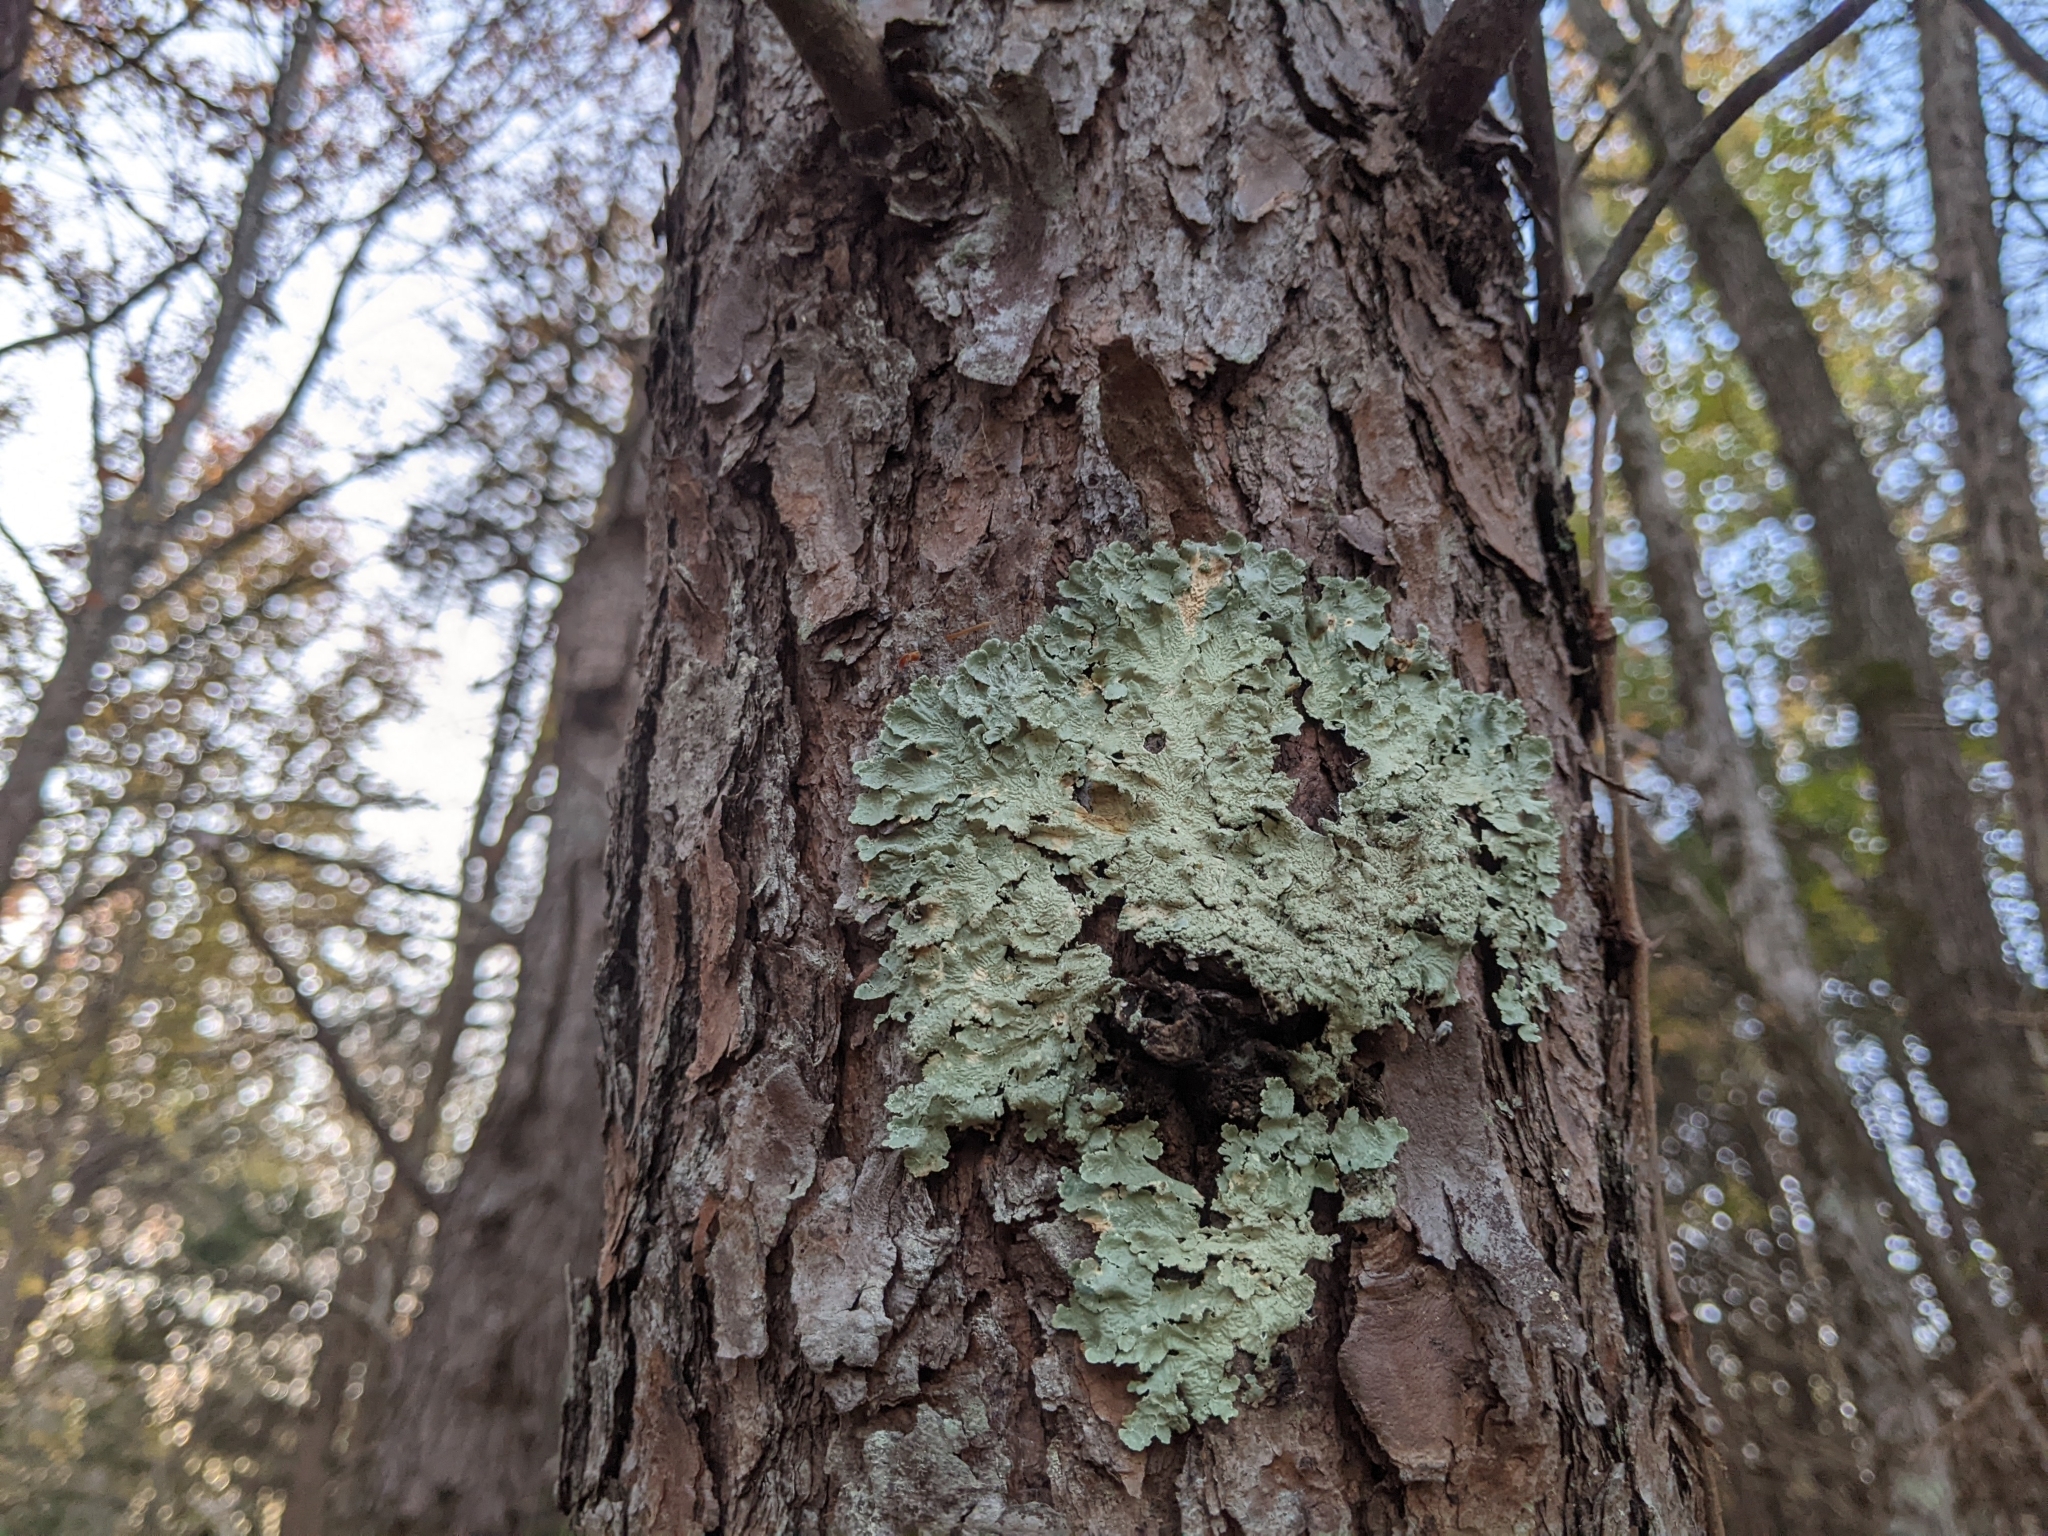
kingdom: Fungi
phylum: Ascomycota
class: Lecanoromycetes
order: Lecanorales
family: Parmeliaceae
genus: Flavoparmelia
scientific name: Flavoparmelia caperata
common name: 40-mile per hour lichen
